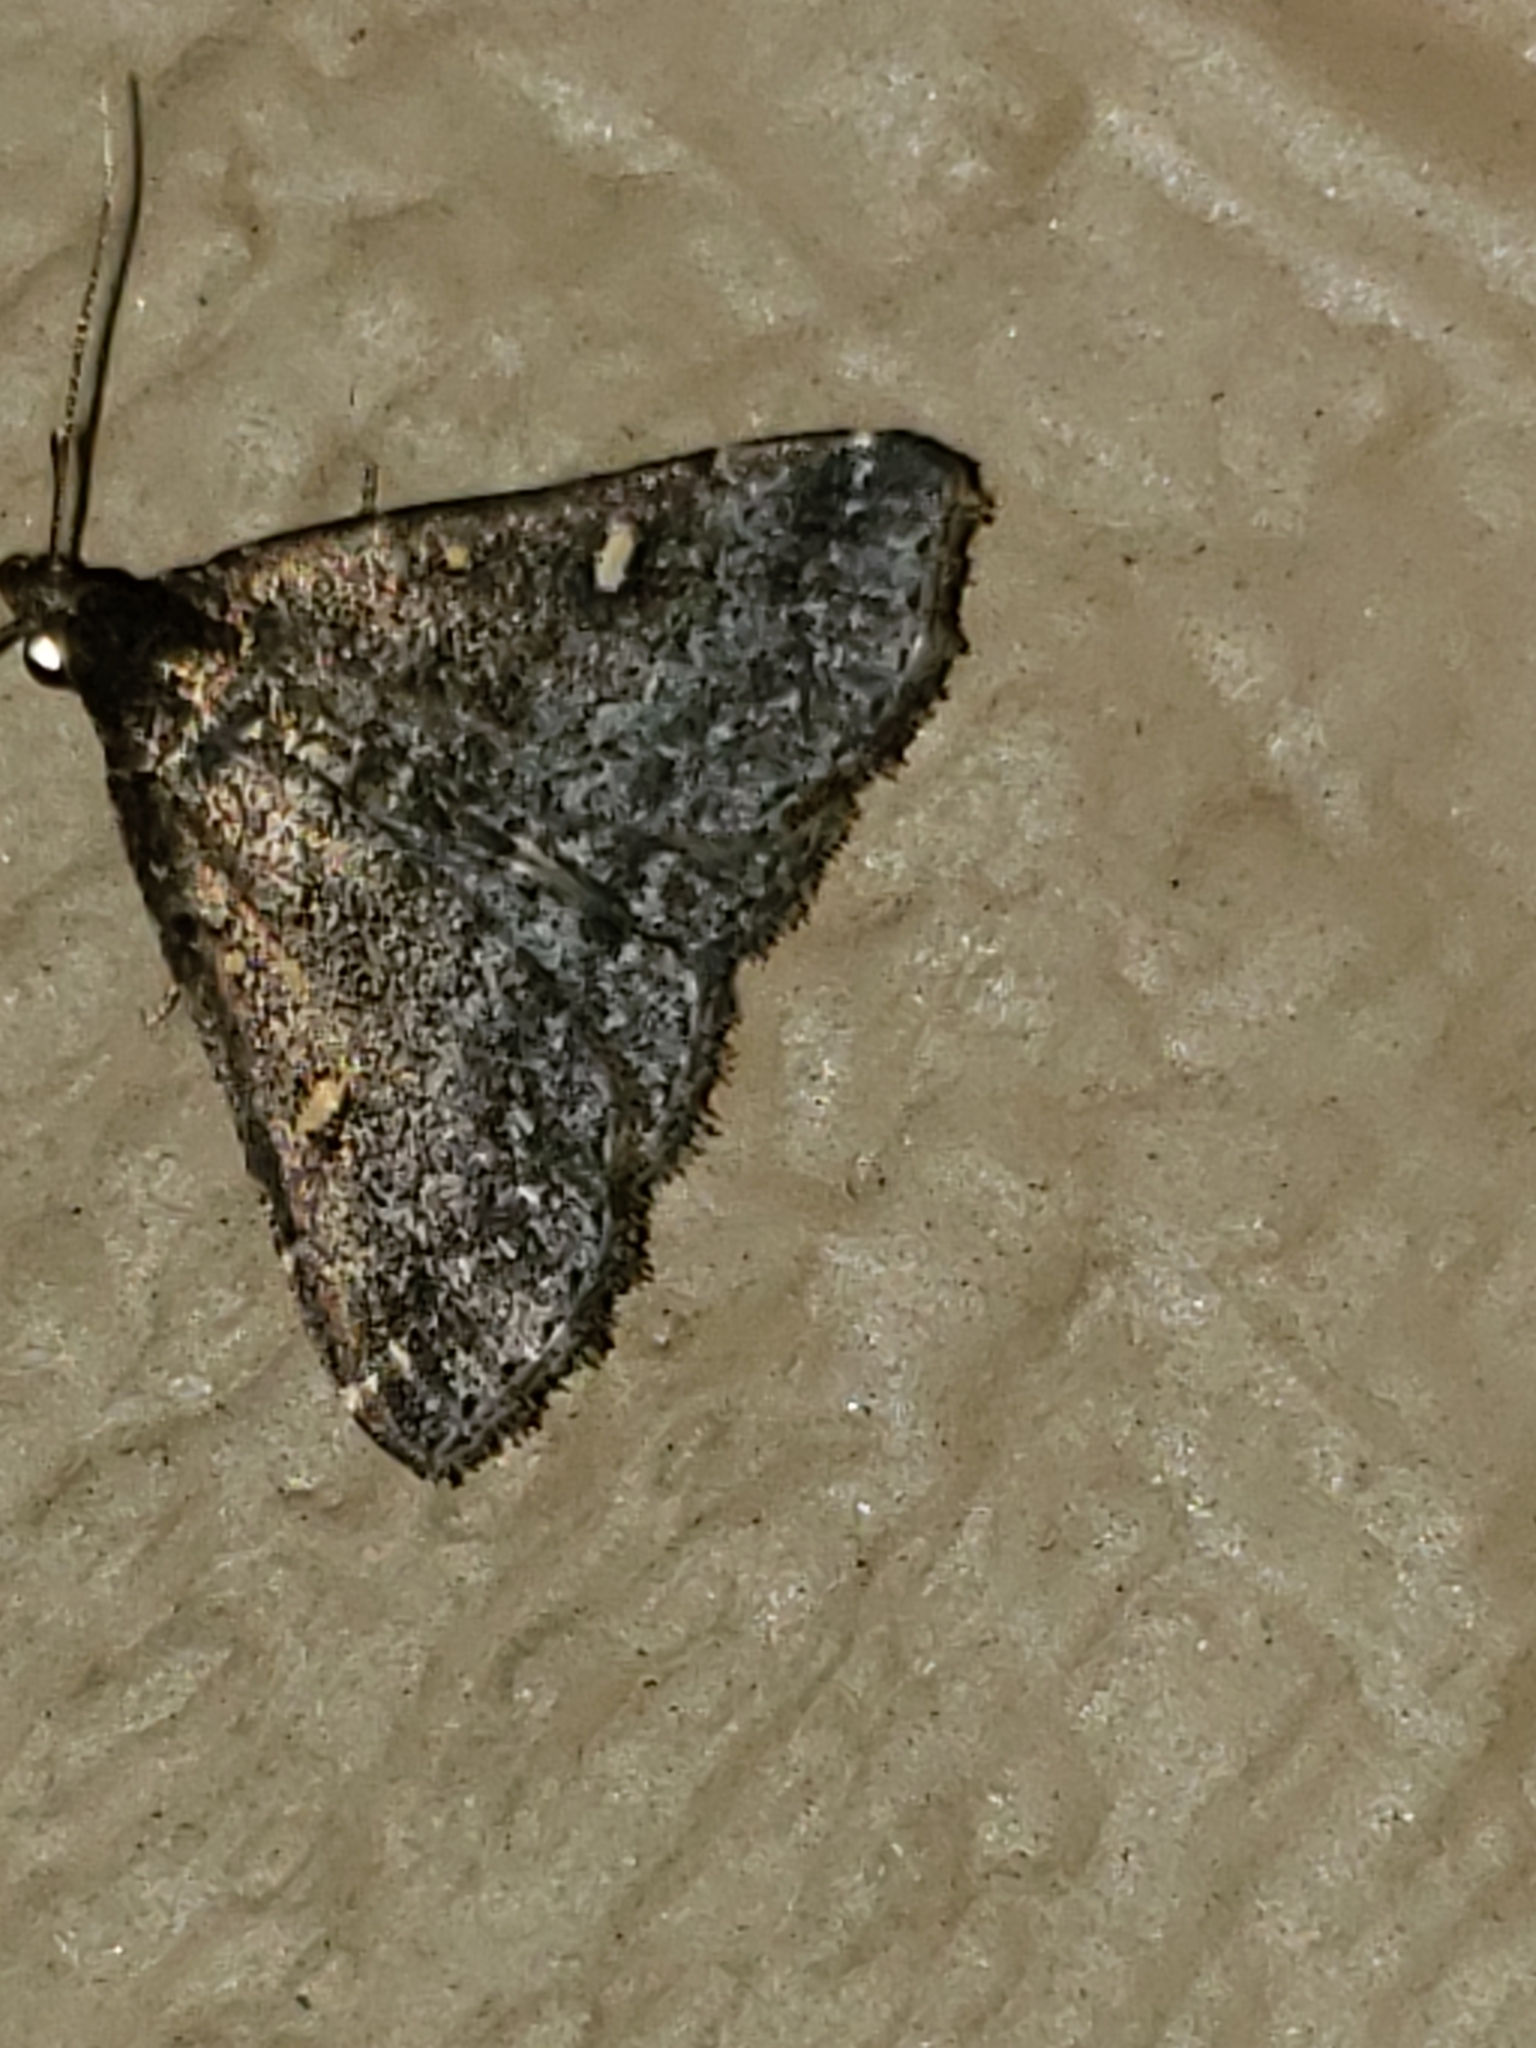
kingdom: Animalia
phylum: Arthropoda
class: Insecta
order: Lepidoptera
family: Erebidae
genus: Tetanolita
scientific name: Tetanolita mynesalis
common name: Smoky tetanolita moth
